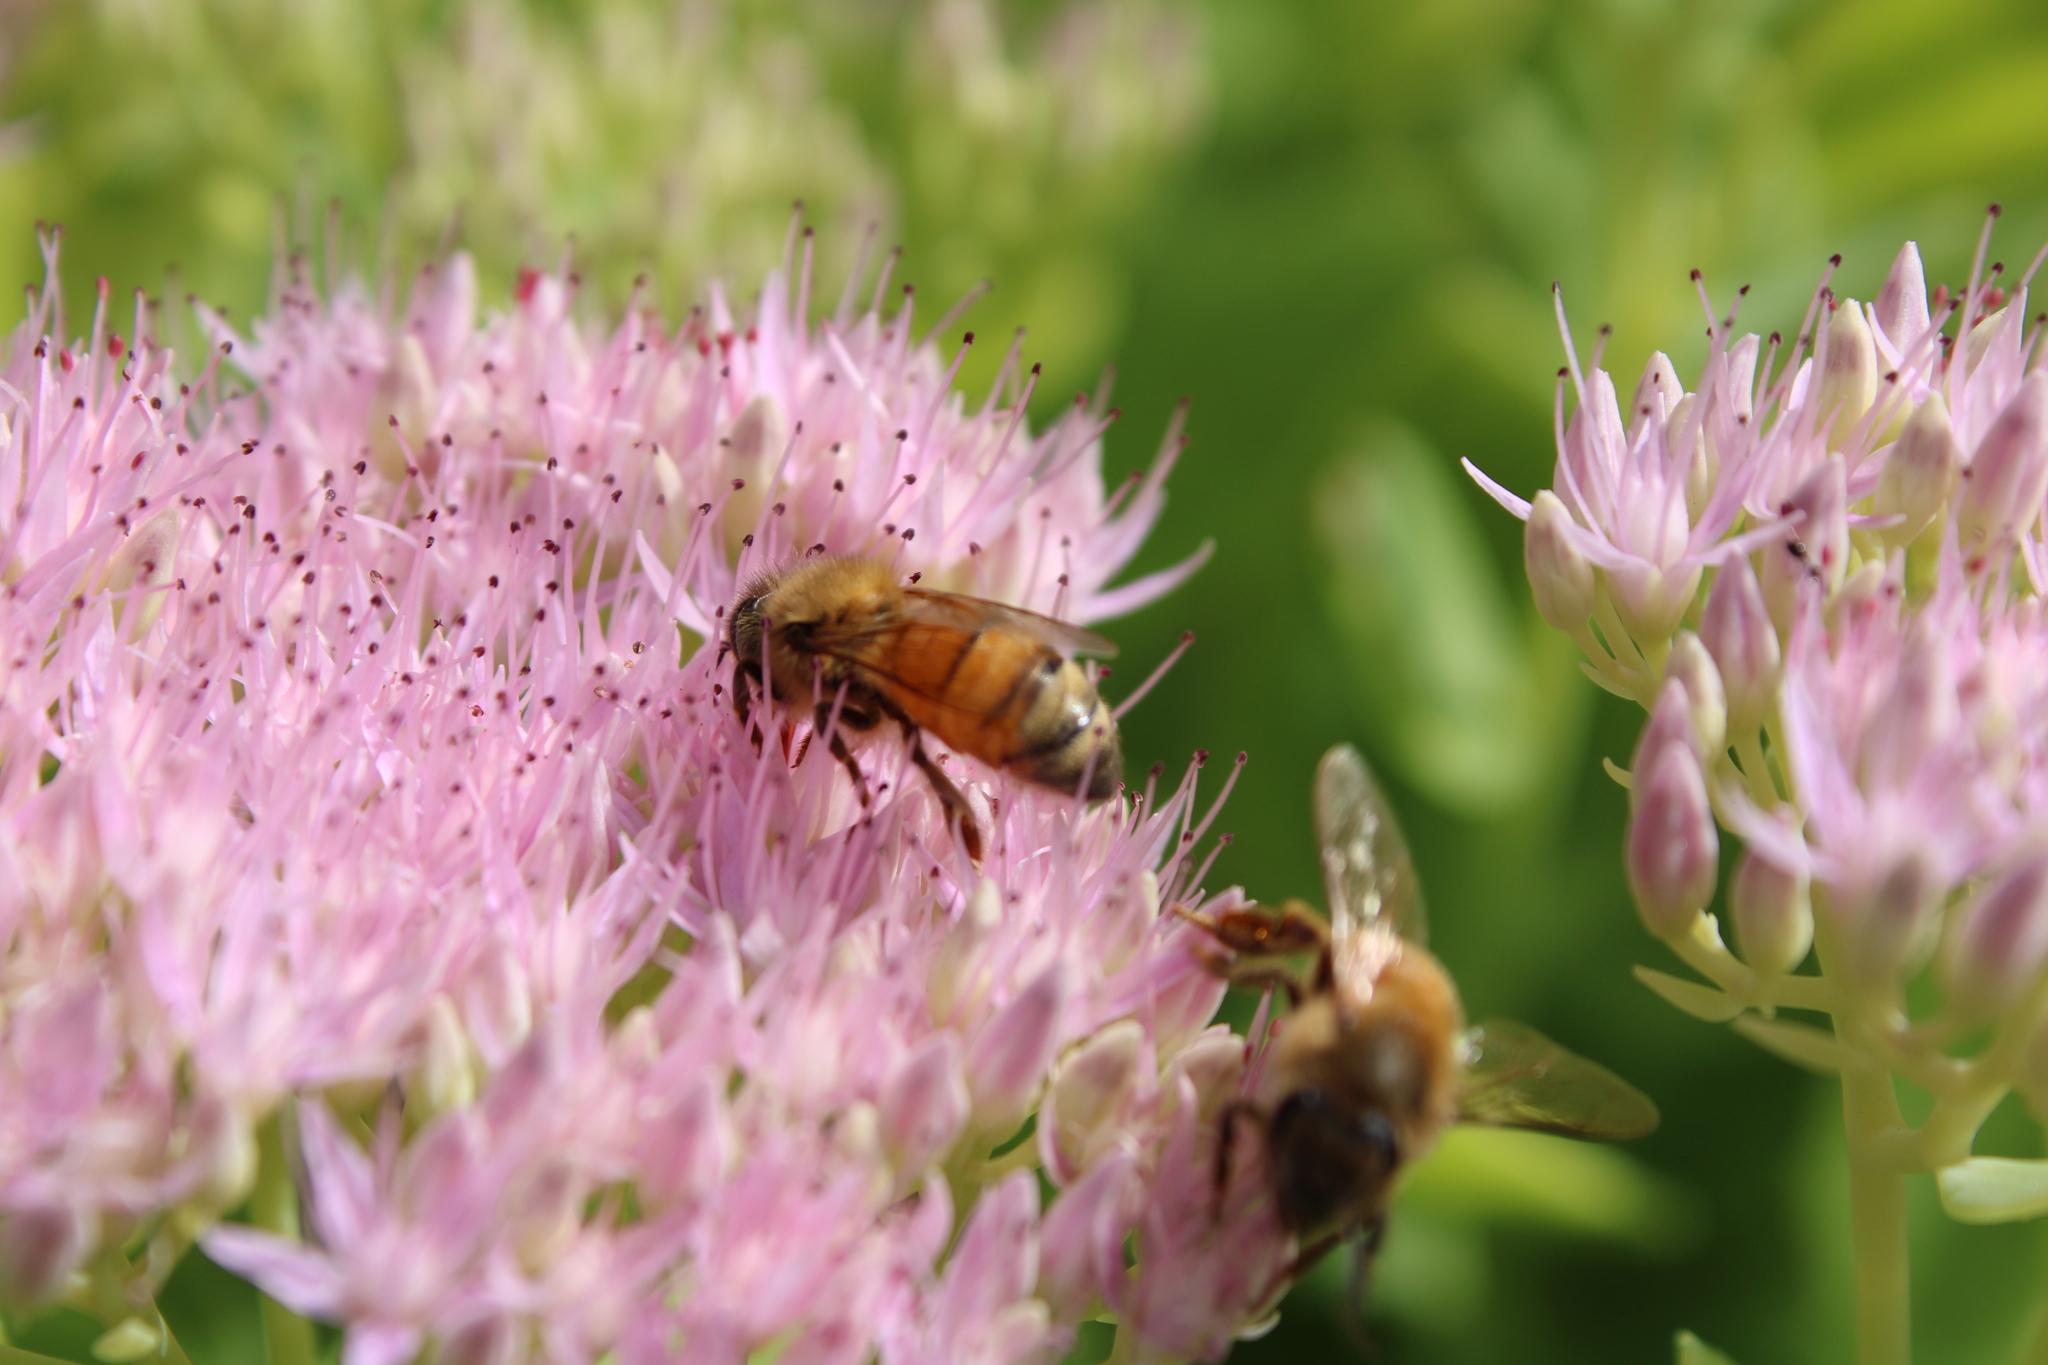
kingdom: Animalia
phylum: Arthropoda
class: Insecta
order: Hymenoptera
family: Apidae
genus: Apis
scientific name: Apis mellifera
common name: Honey bee
